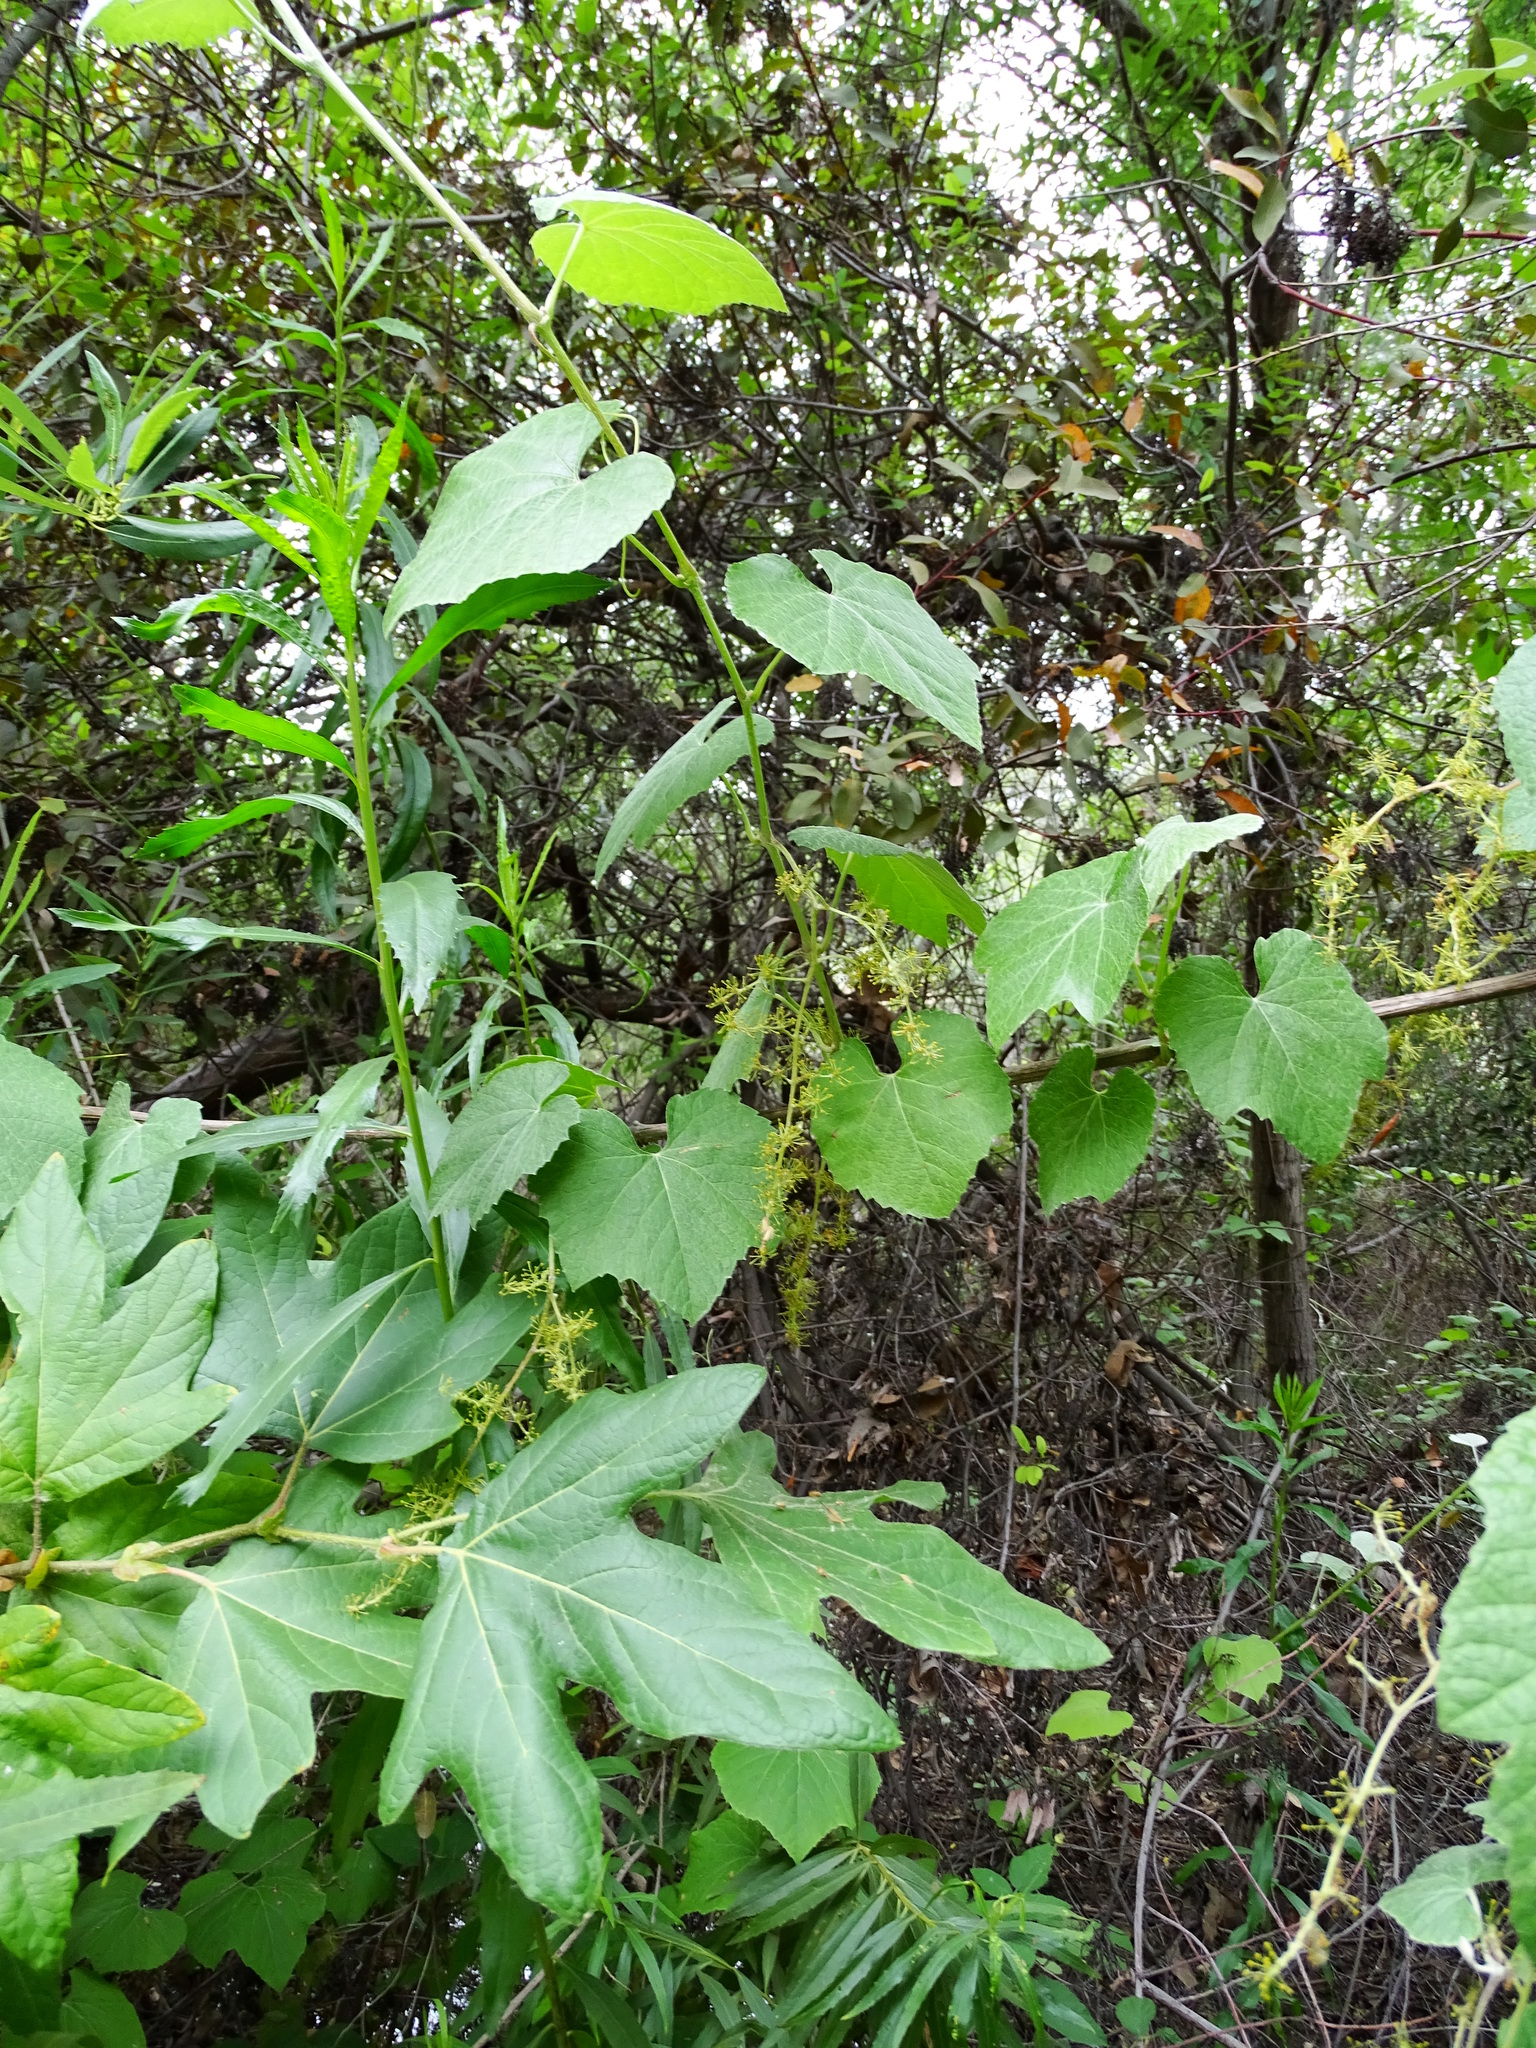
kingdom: Plantae
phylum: Tracheophyta
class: Magnoliopsida
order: Vitales
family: Vitaceae
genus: Vitis
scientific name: Vitis girdiana
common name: Desert wild grape
